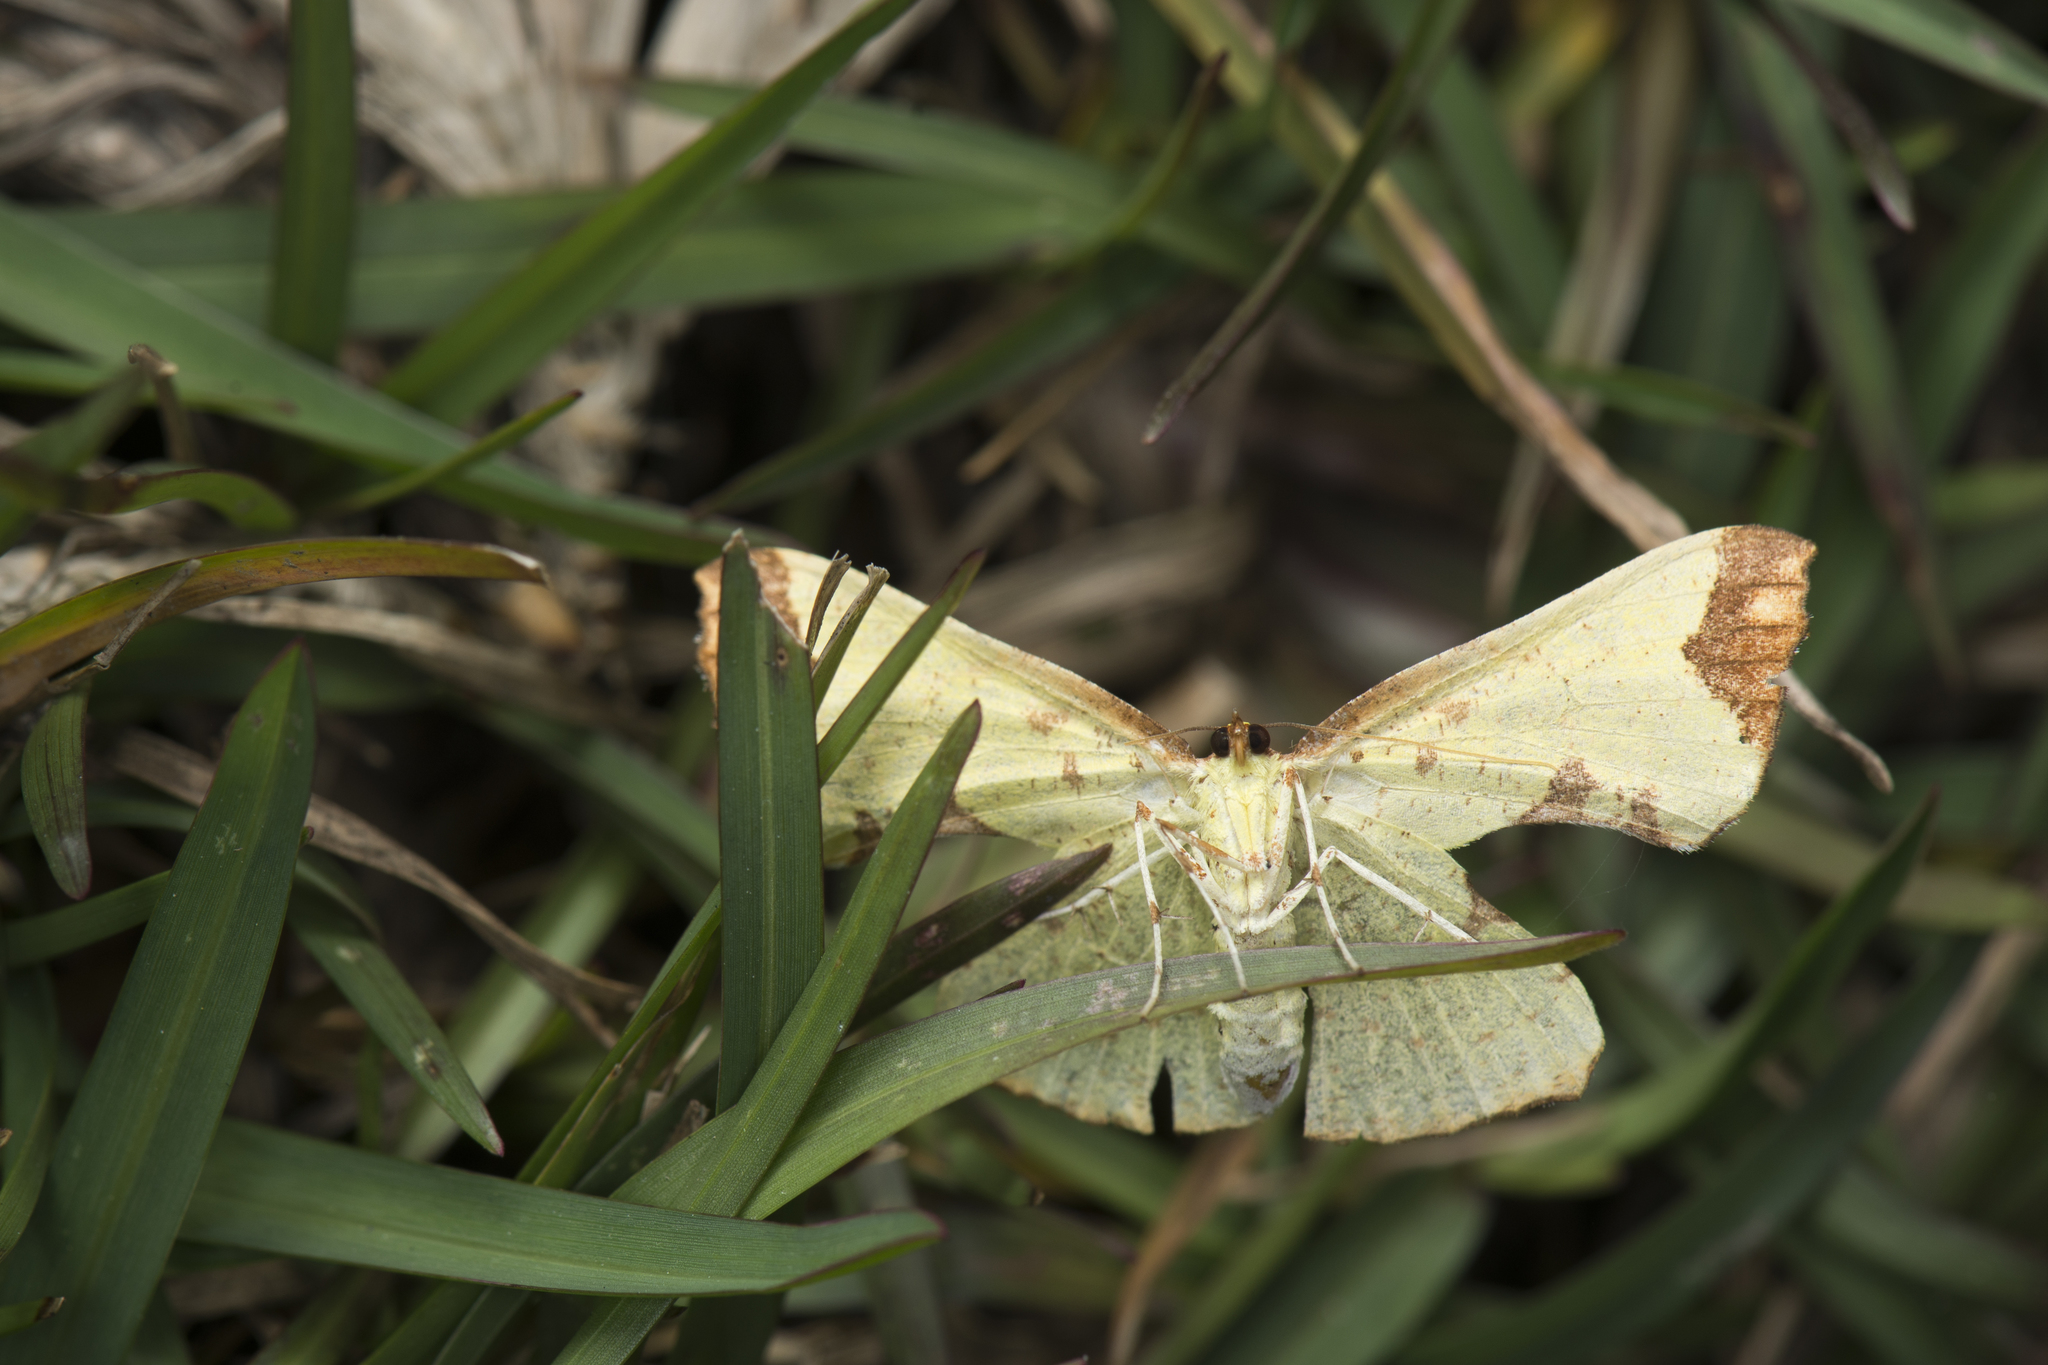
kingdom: Animalia
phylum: Arthropoda
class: Insecta
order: Lepidoptera
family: Geometridae
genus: Corymica
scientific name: Corymica pryeri
